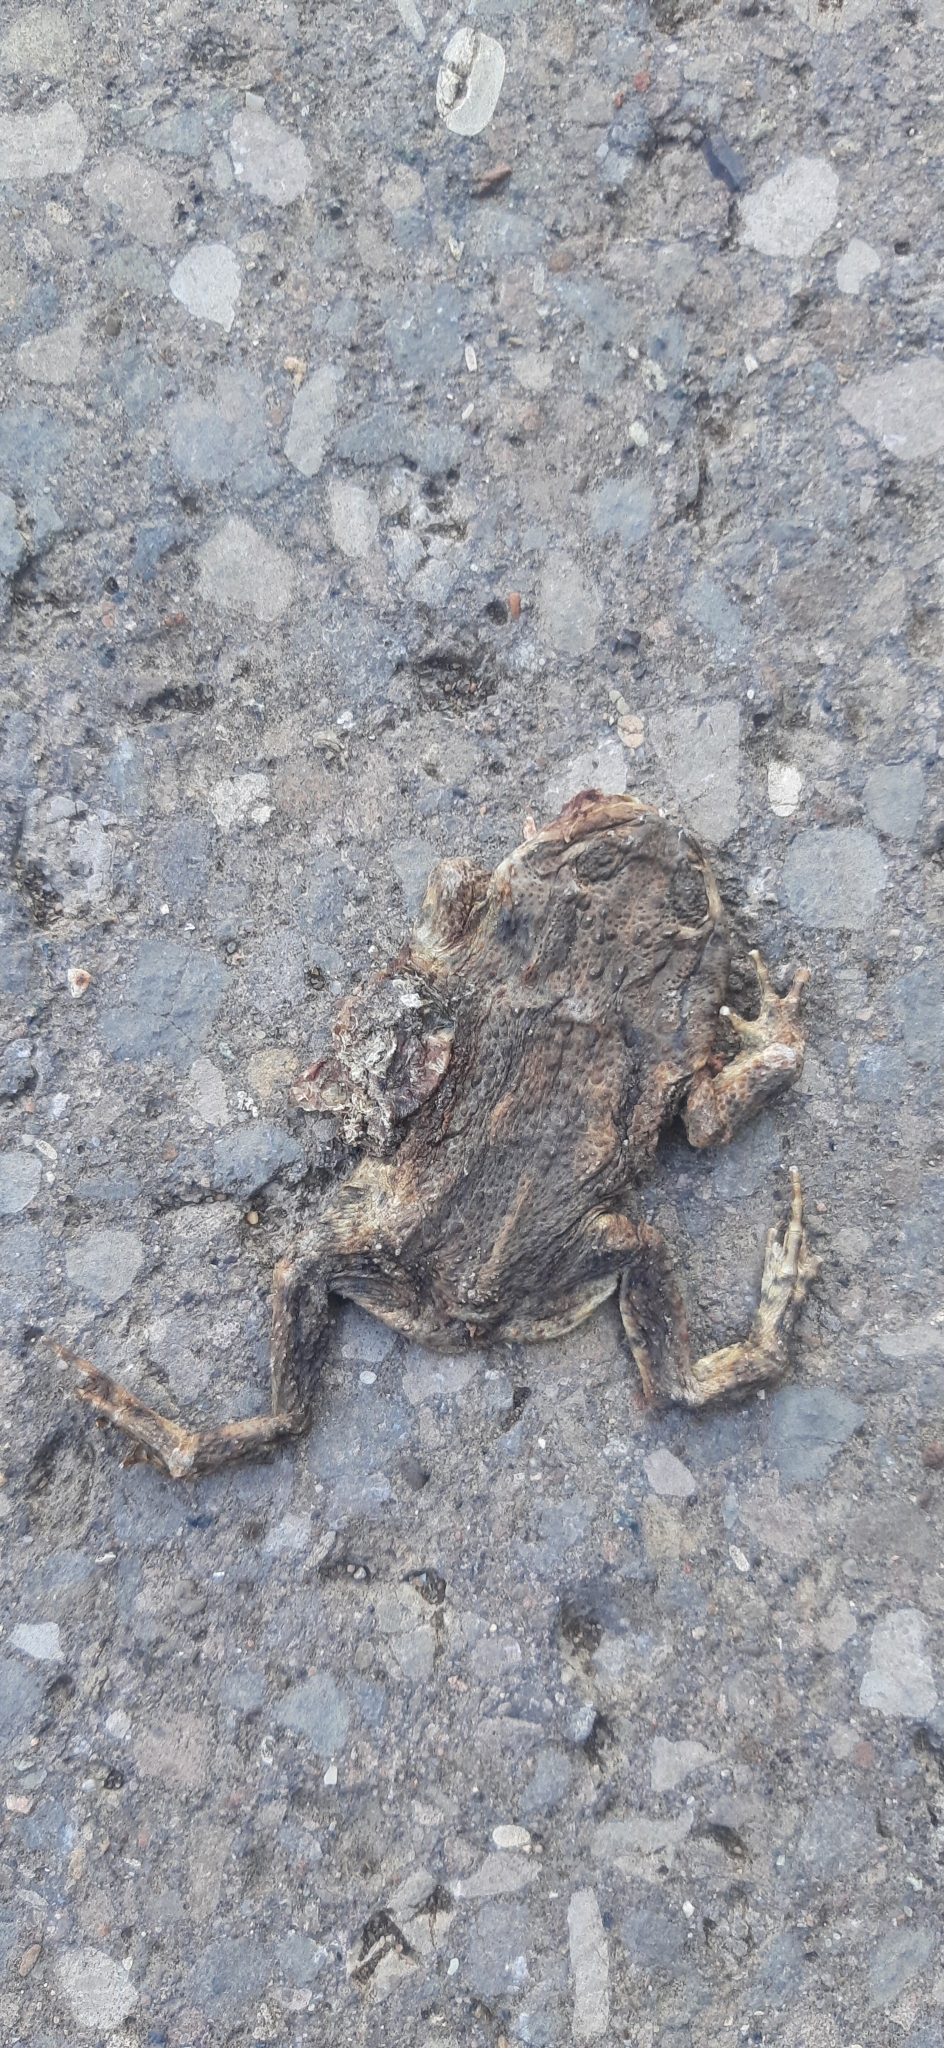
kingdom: Animalia
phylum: Chordata
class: Amphibia
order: Anura
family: Bufonidae
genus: Bufo
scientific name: Bufo bufo
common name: Common toad
